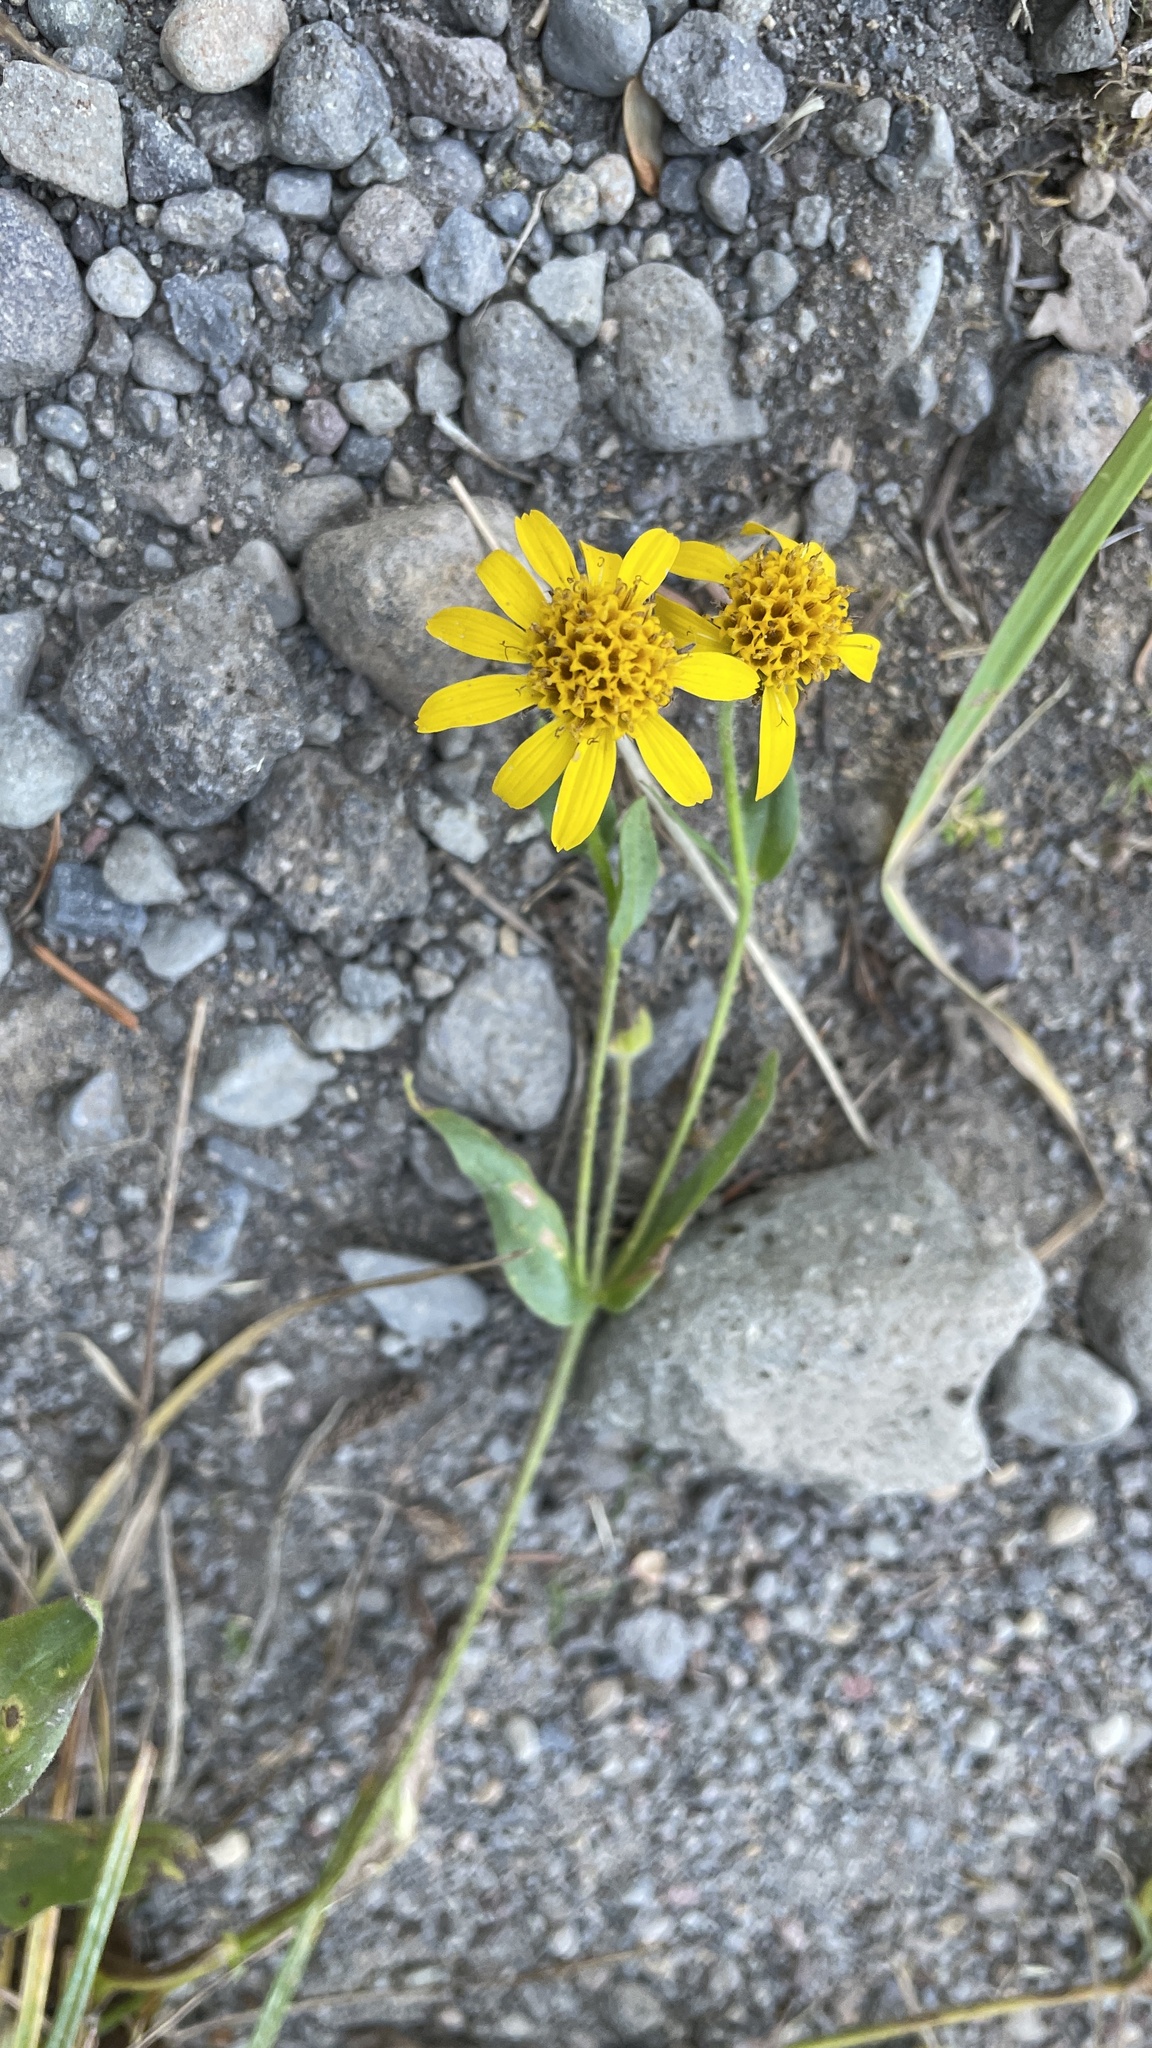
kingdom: Plantae
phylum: Tracheophyta
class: Magnoliopsida
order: Asterales
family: Asteraceae
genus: Arnica
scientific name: Arnica lanceolata
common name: Lance-leaved arnica
